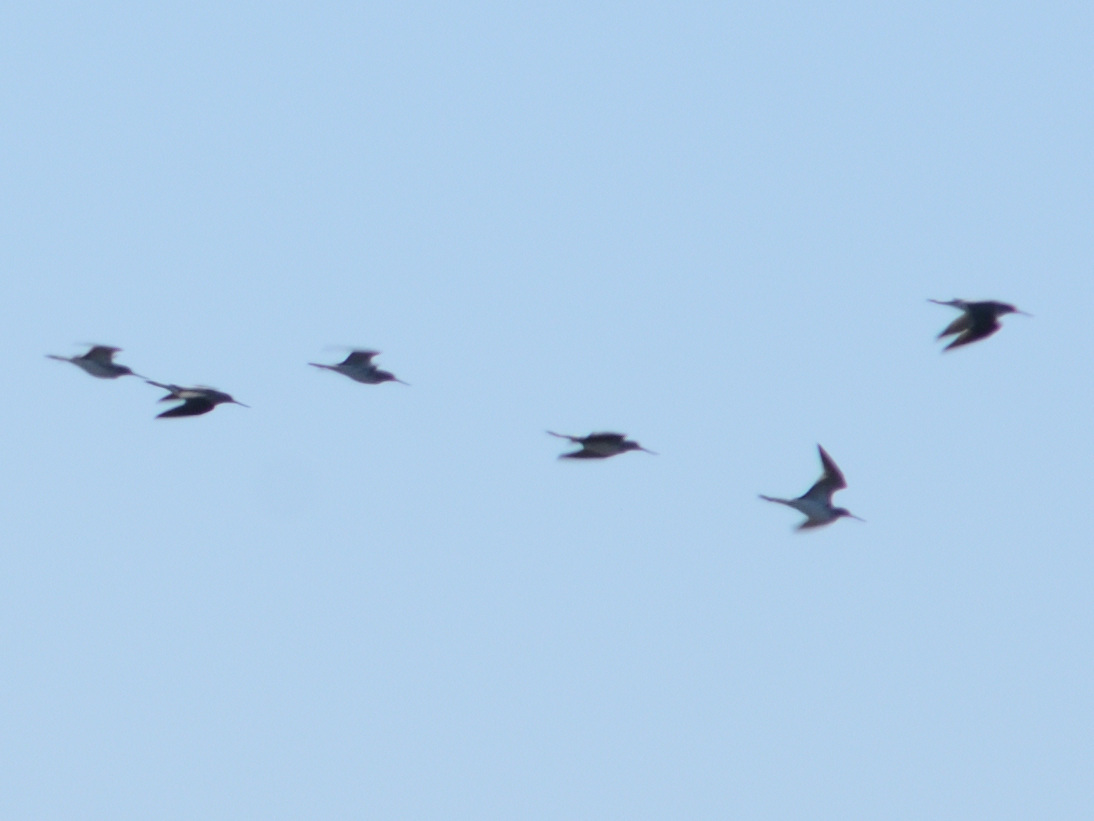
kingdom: Animalia
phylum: Chordata
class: Aves
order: Charadriiformes
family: Scolopacidae
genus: Tringa
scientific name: Tringa nebularia
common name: Common greenshank
